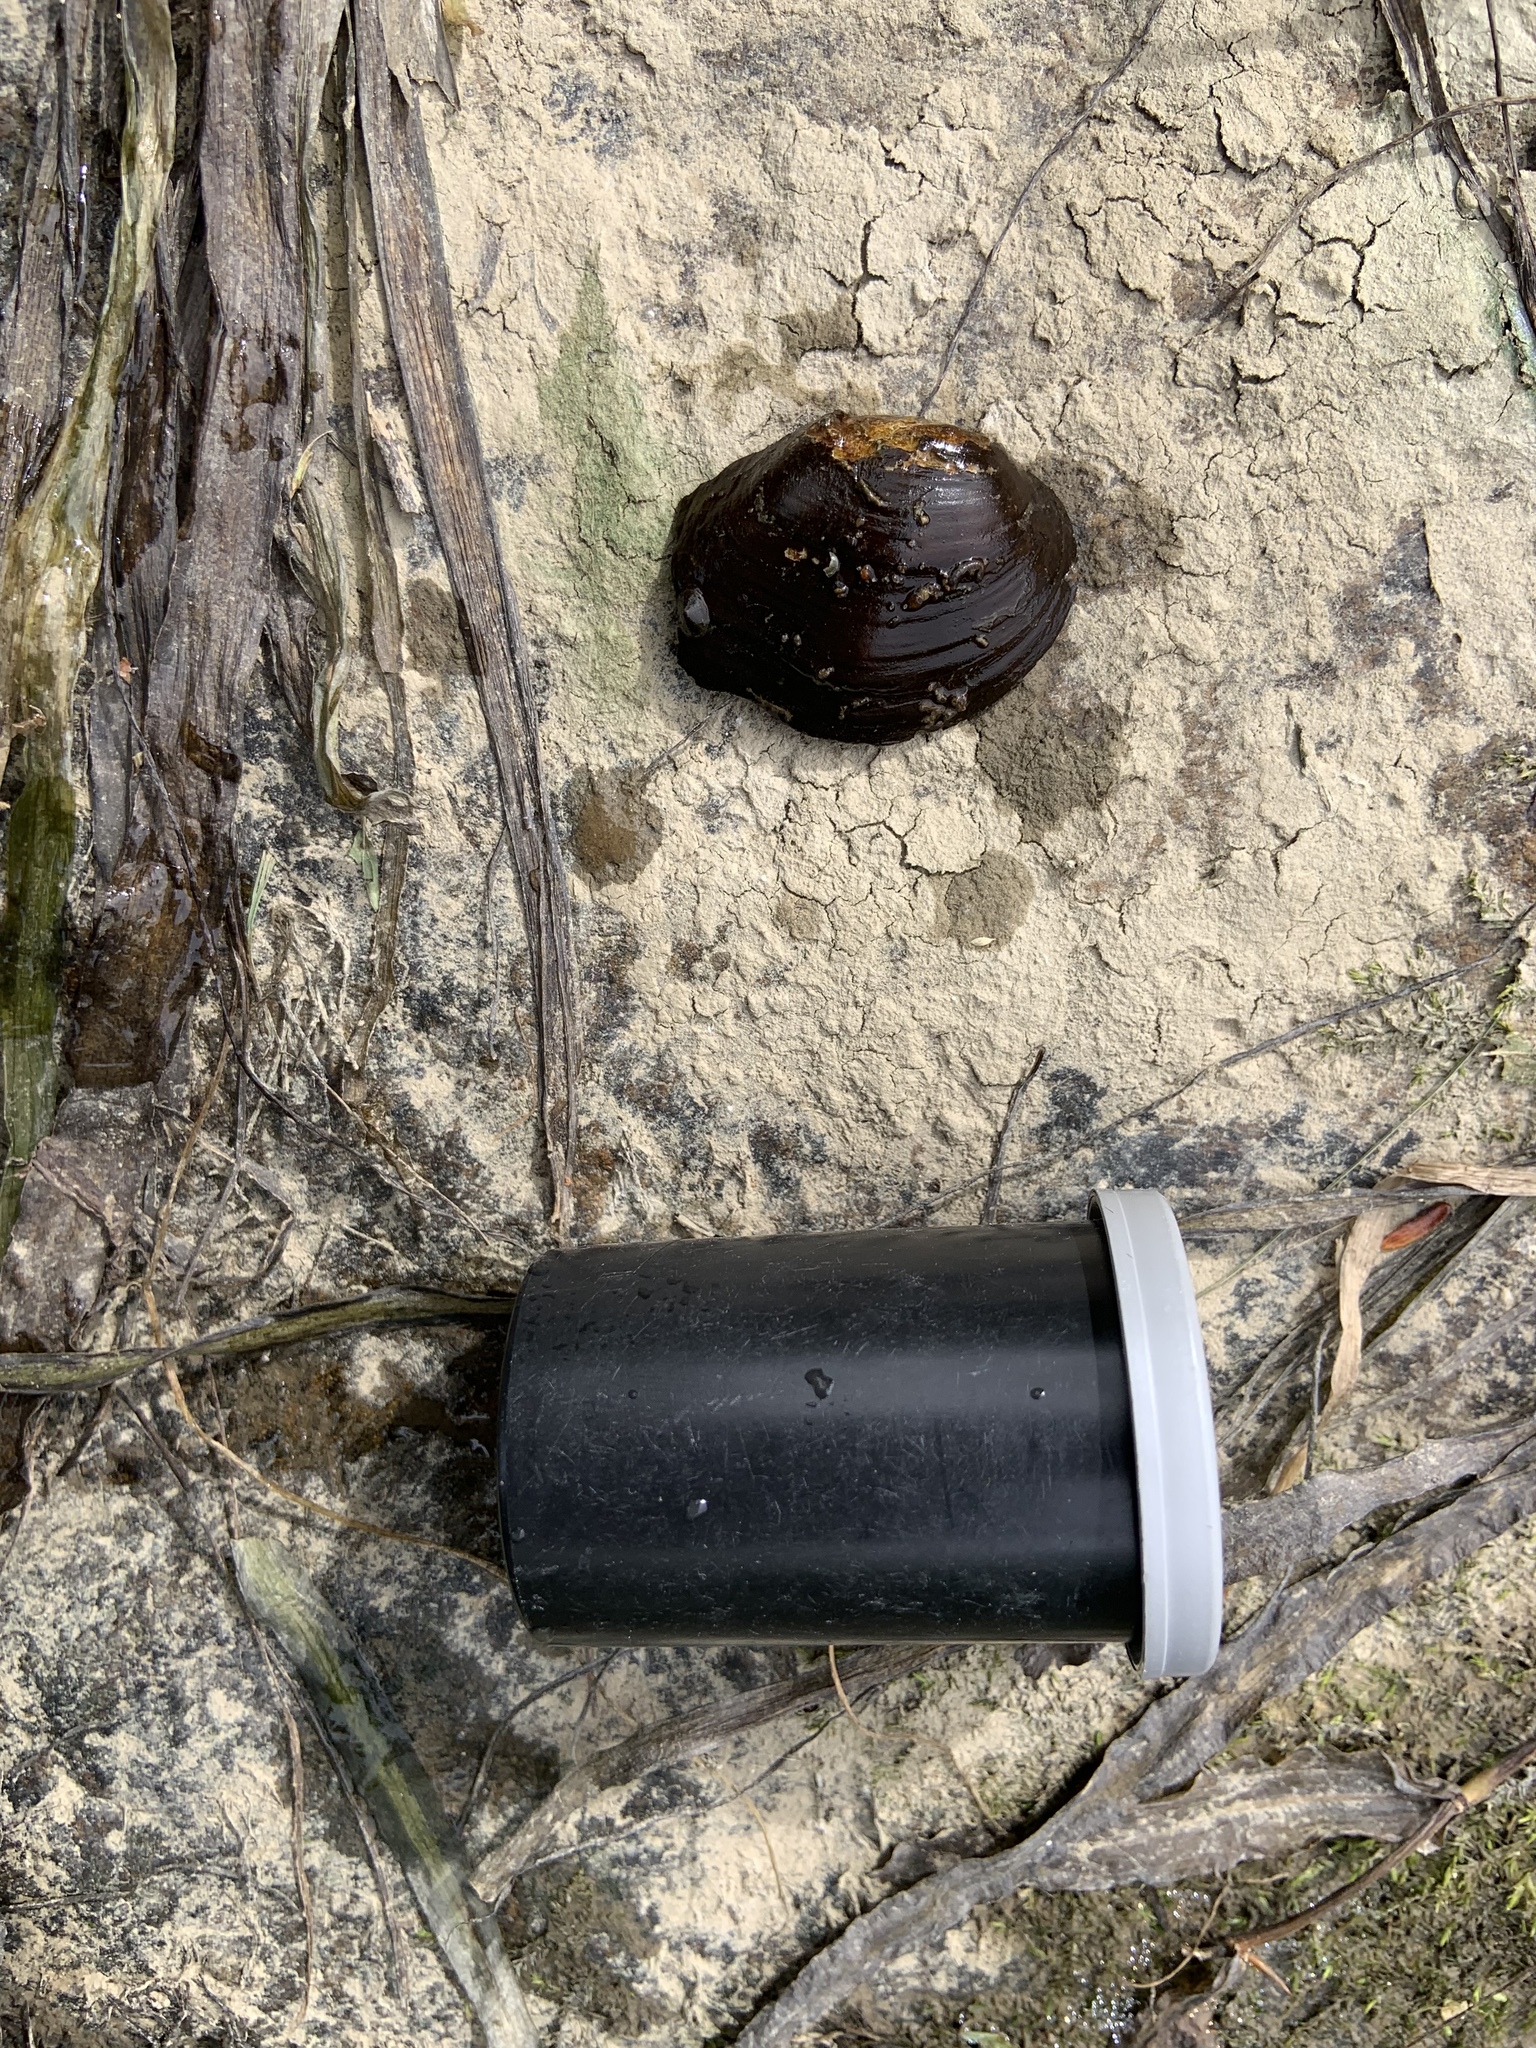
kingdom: Animalia
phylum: Mollusca
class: Bivalvia
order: Unionida
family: Unionidae
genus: Epioblasma
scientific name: Epioblasma rangiana
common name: Northern riffleshell
